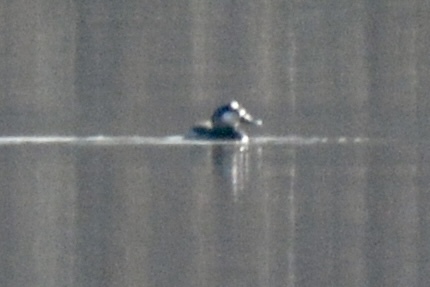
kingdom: Animalia
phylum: Chordata
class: Aves
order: Anseriformes
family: Anatidae
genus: Oxyura
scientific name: Oxyura jamaicensis
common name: Ruddy duck
